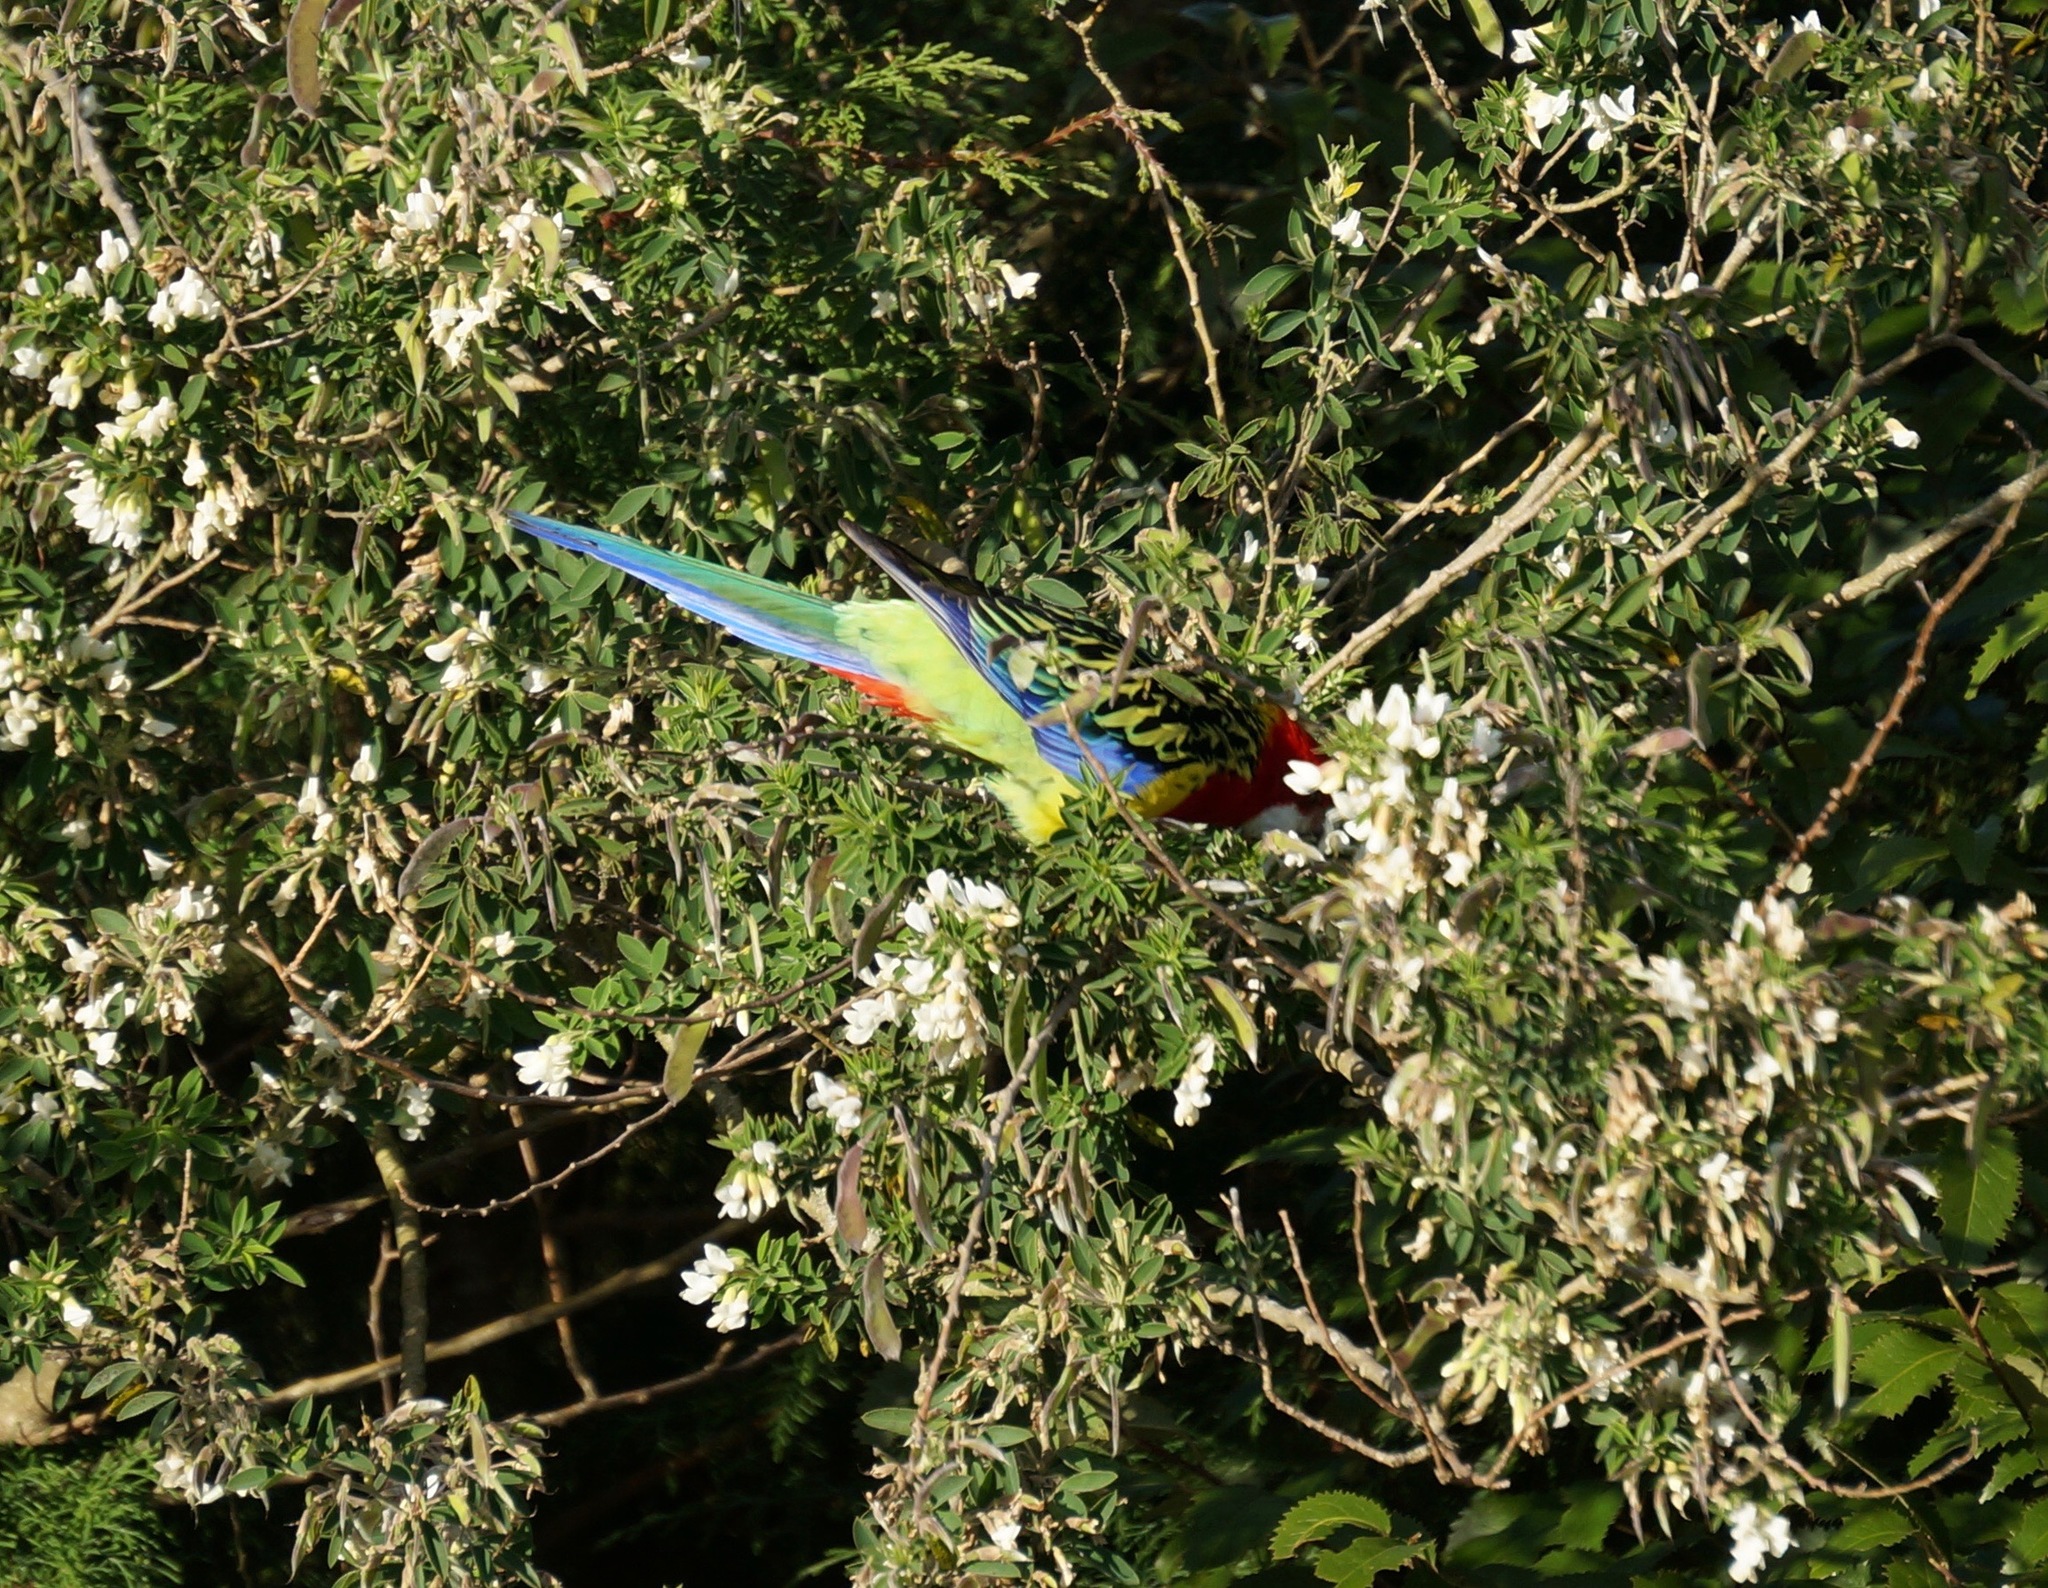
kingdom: Animalia
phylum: Chordata
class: Aves
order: Psittaciformes
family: Psittacidae
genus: Platycercus
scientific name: Platycercus eximius
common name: Eastern rosella
